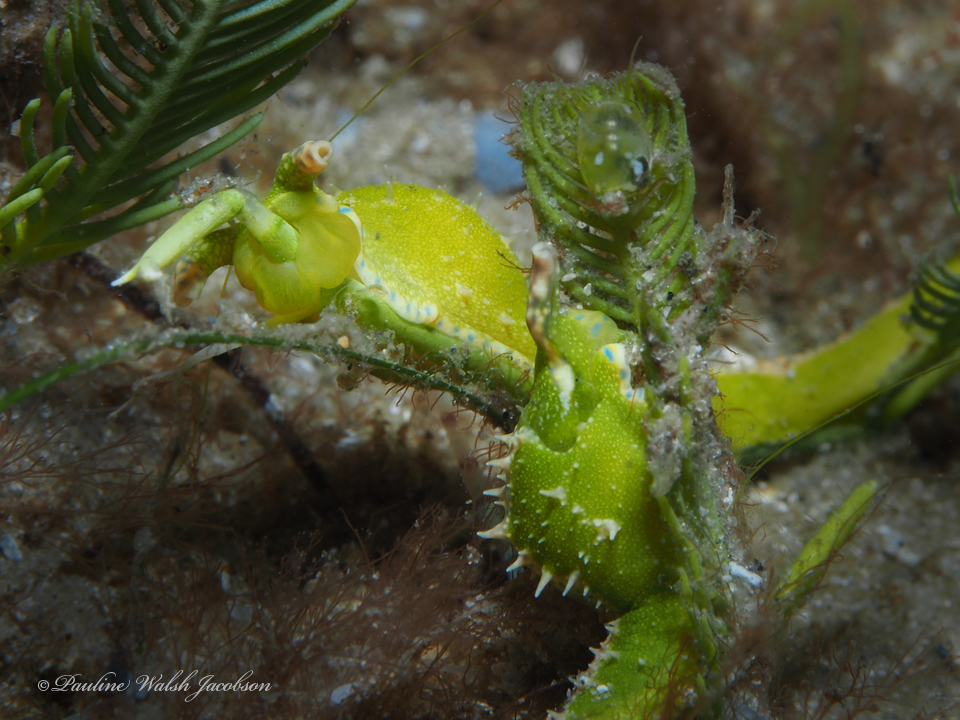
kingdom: Animalia
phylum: Mollusca
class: Gastropoda
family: Oxynoidae
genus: Oxynoe
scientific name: Oxynoe antillarum
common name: Antilles oxynoe
